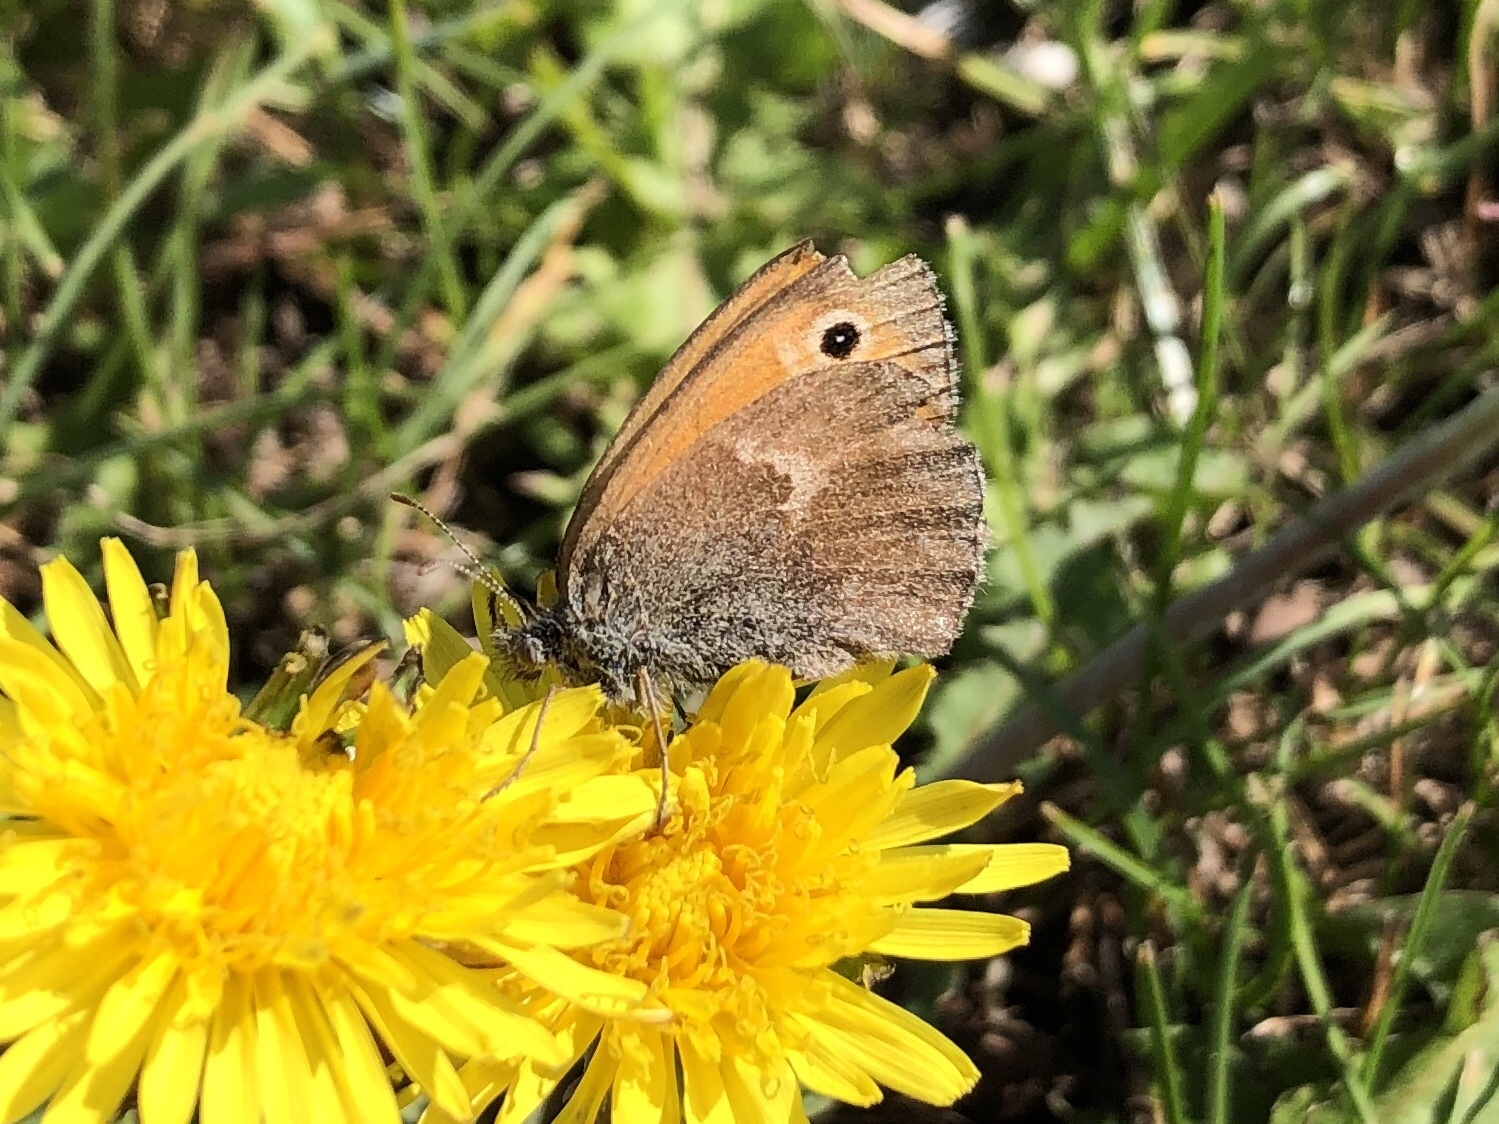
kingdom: Animalia
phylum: Arthropoda
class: Insecta
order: Lepidoptera
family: Nymphalidae
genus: Coenonympha
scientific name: Coenonympha pamphilus
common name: Small heath
